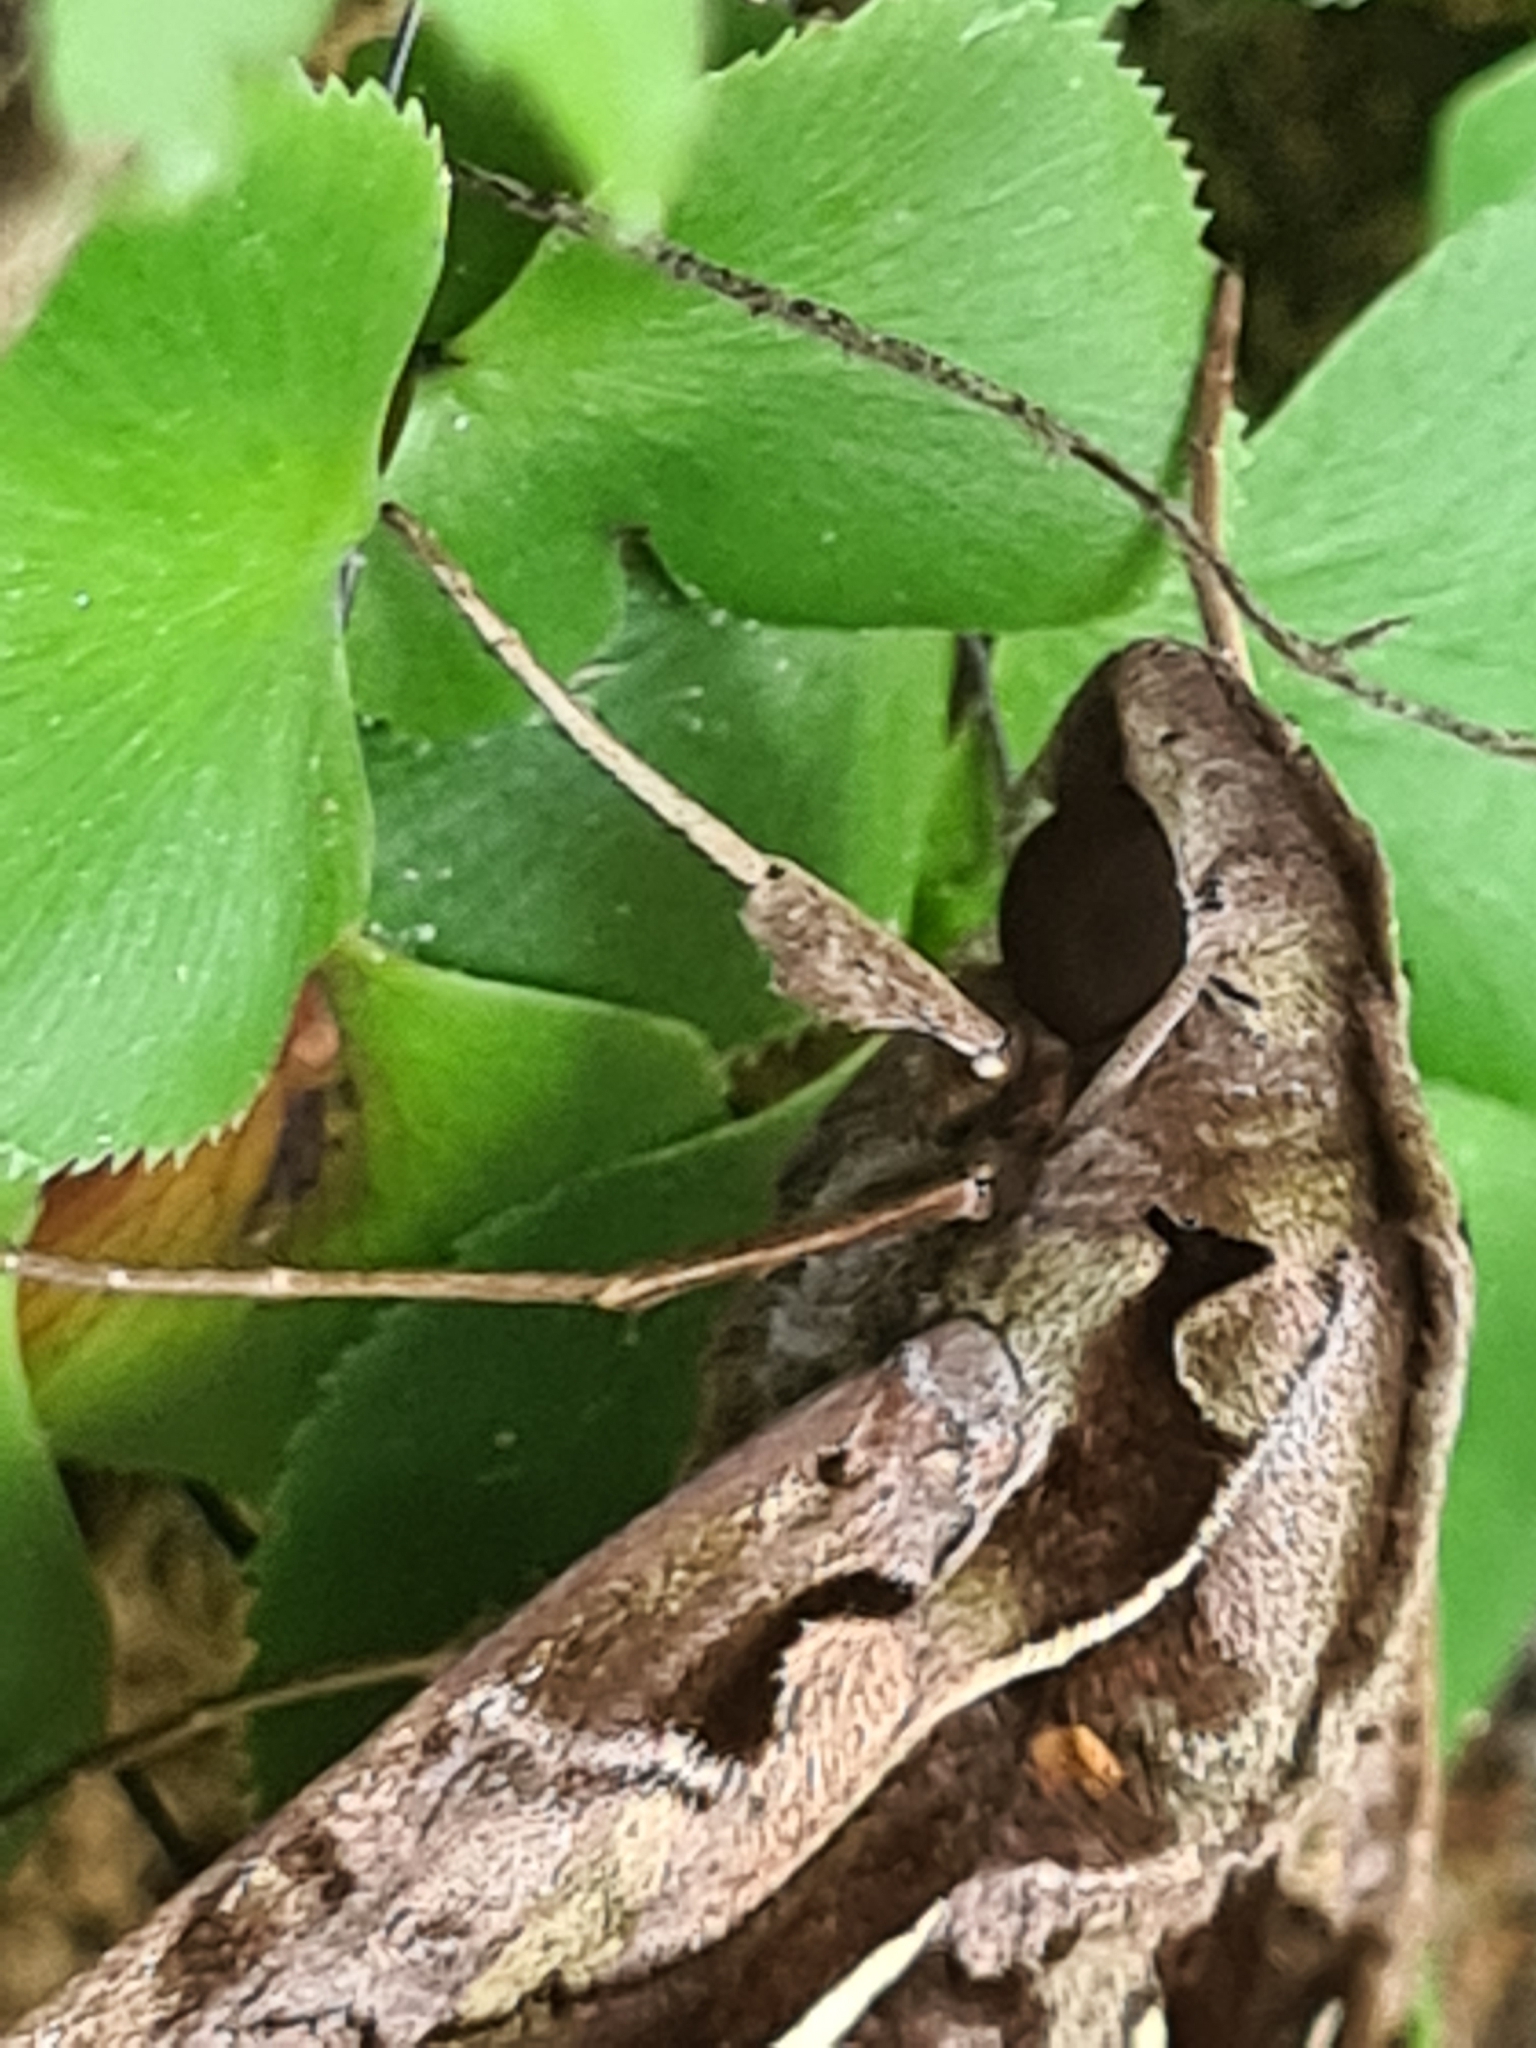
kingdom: Animalia
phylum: Arthropoda
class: Insecta
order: Lepidoptera
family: Sphingidae
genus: Hemeroplanes
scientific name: Hemeroplanes triptolemus
